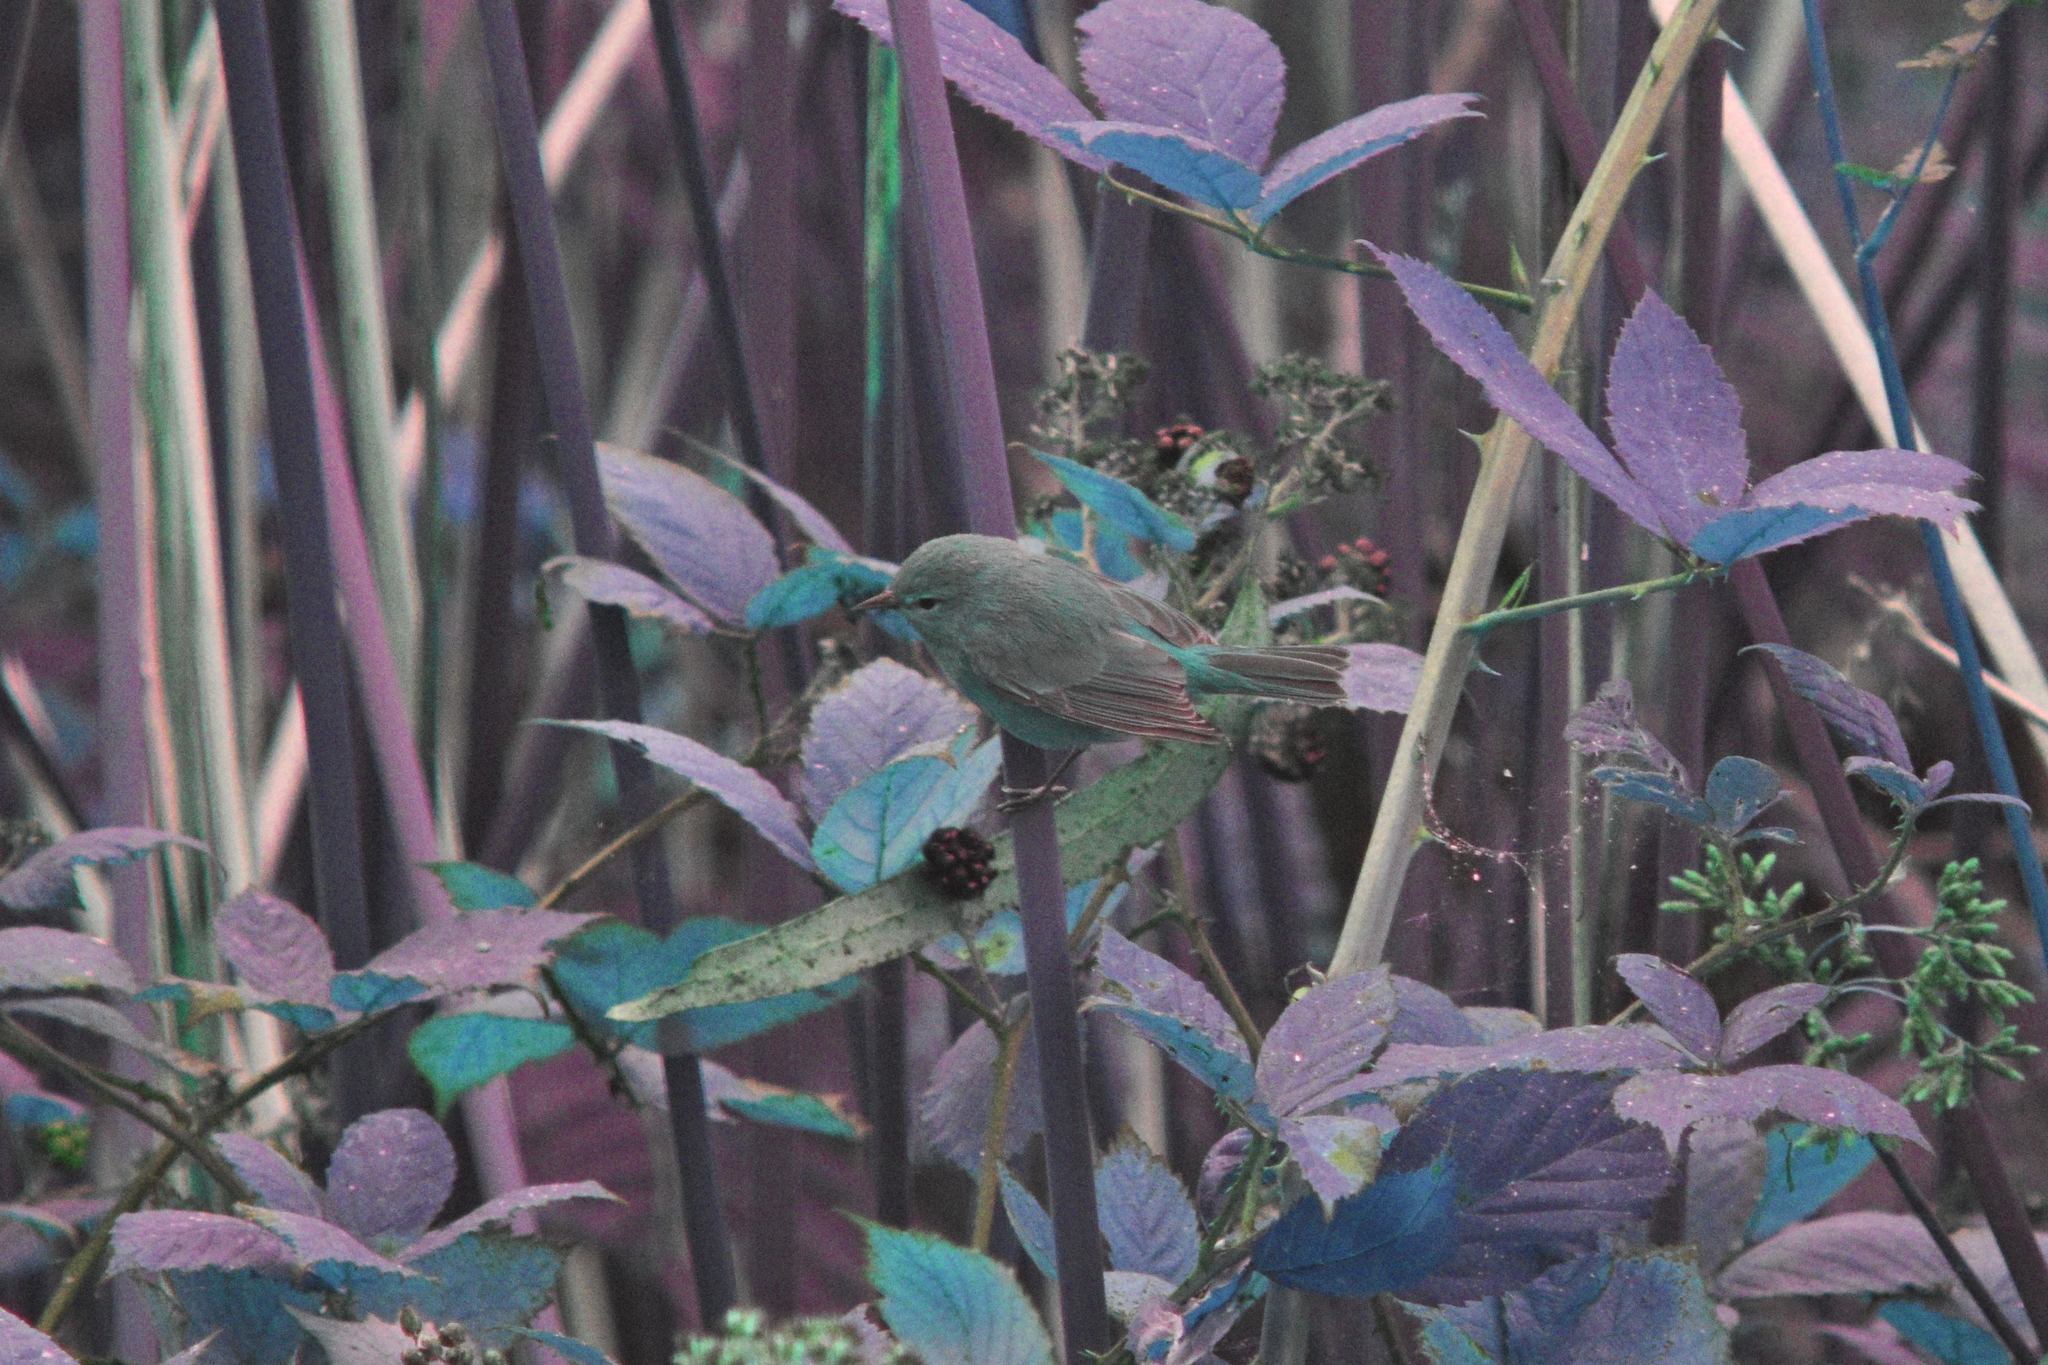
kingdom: Animalia
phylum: Chordata
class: Aves
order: Passeriformes
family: Parulidae
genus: Leiothlypis
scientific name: Leiothlypis celata
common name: Orange-crowned warbler
